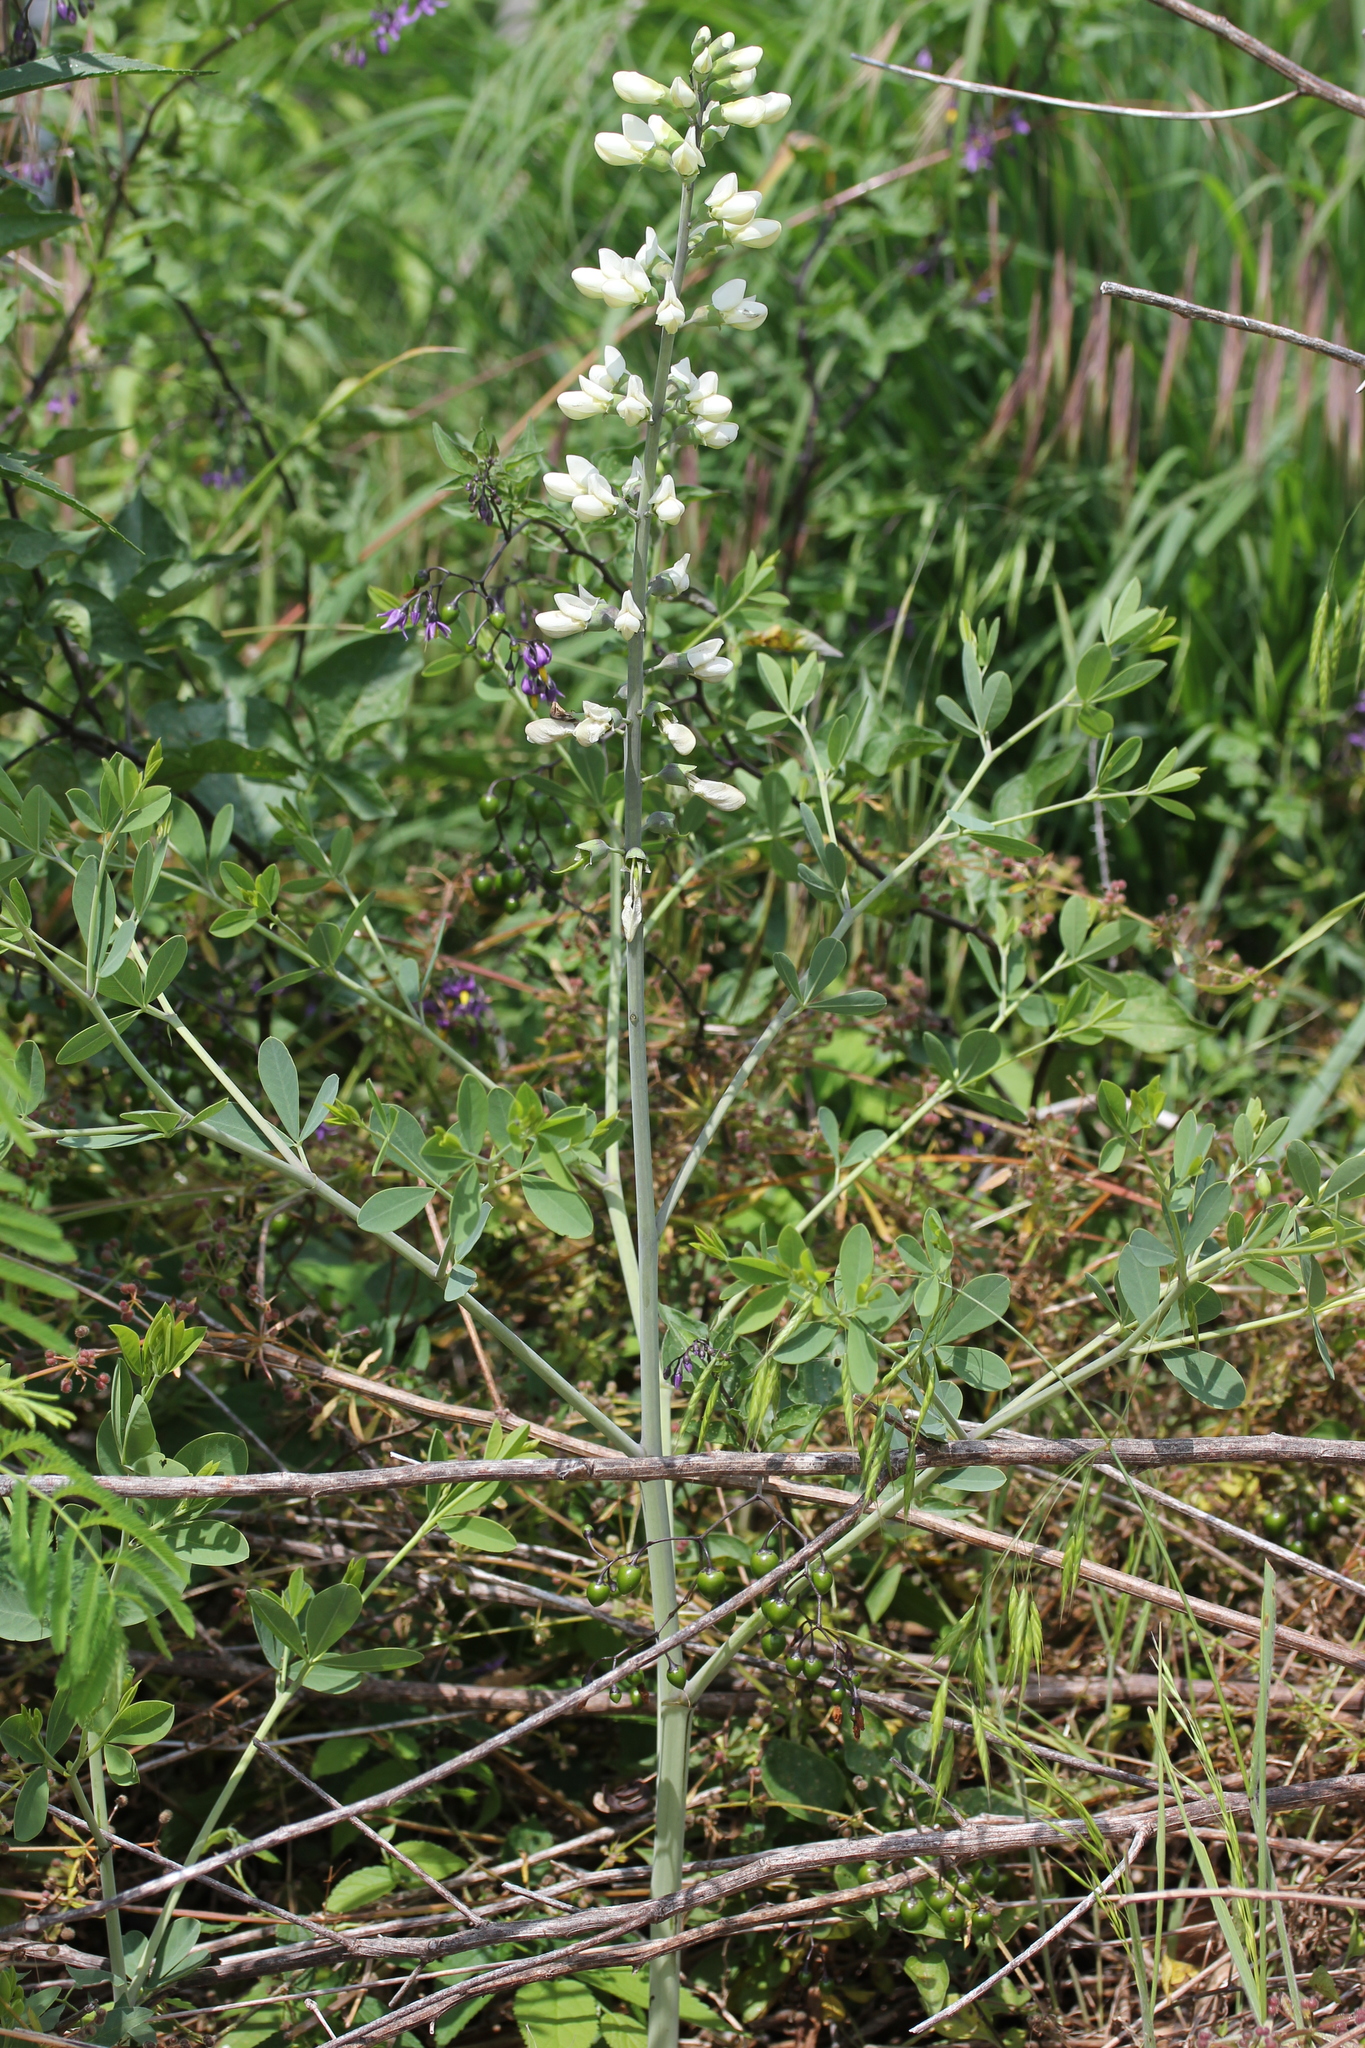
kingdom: Plantae
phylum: Tracheophyta
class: Magnoliopsida
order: Fabales
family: Fabaceae
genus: Baptisia
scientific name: Baptisia alba
